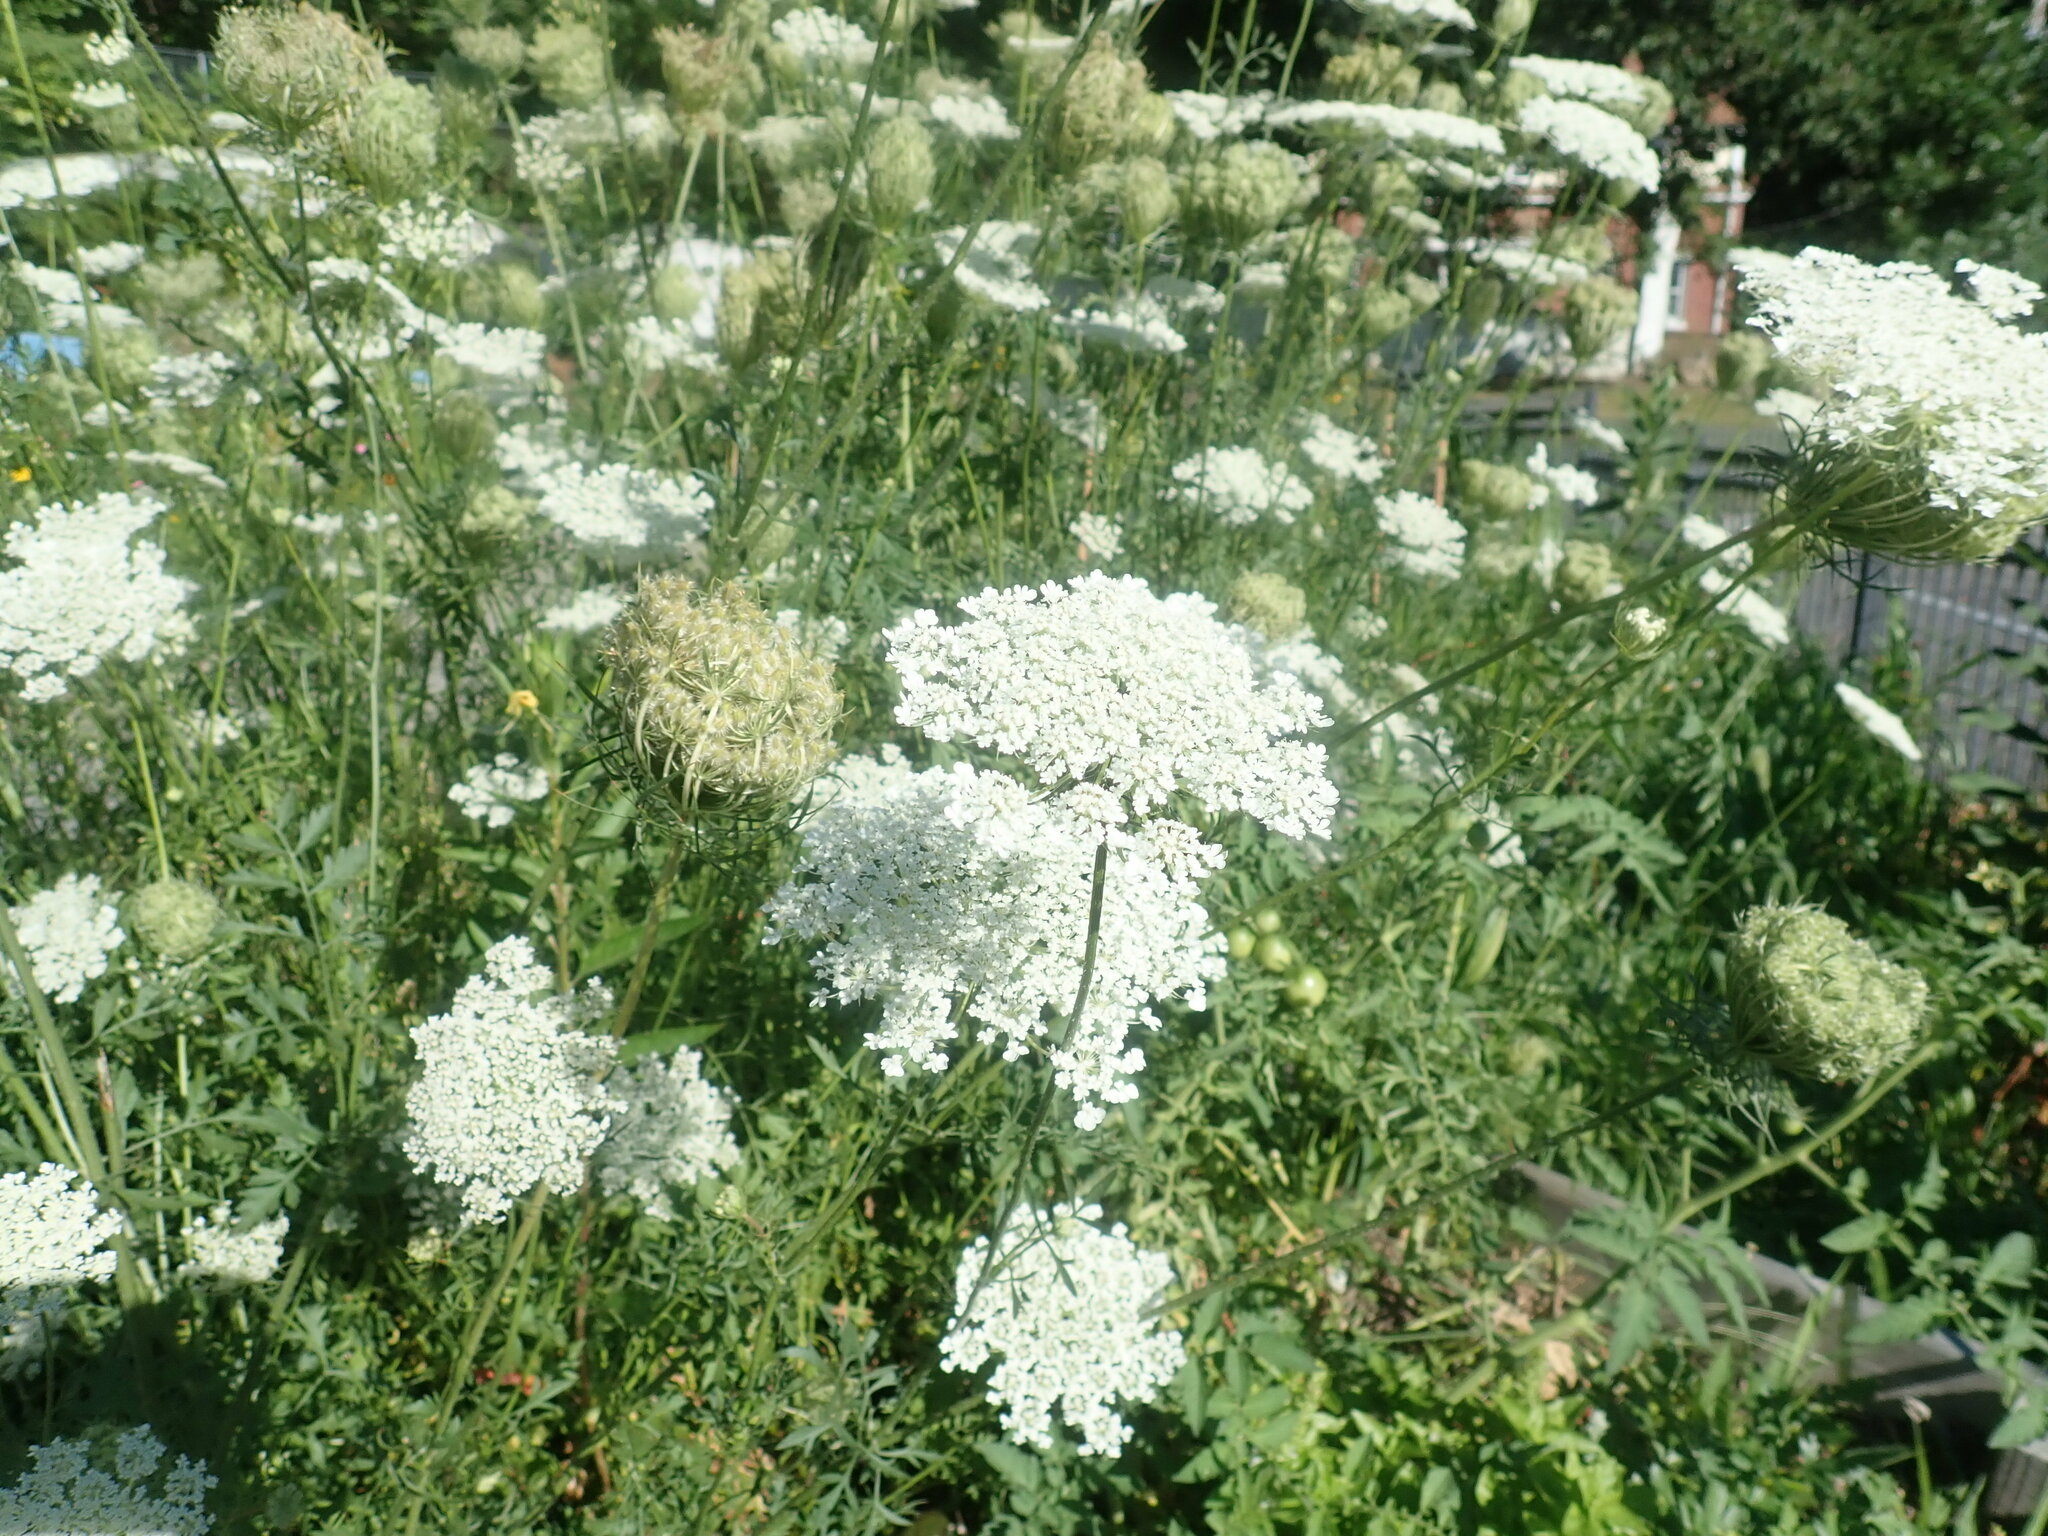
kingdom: Plantae
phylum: Tracheophyta
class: Magnoliopsida
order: Apiales
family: Apiaceae
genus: Daucus
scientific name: Daucus carota
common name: Wild carrot
